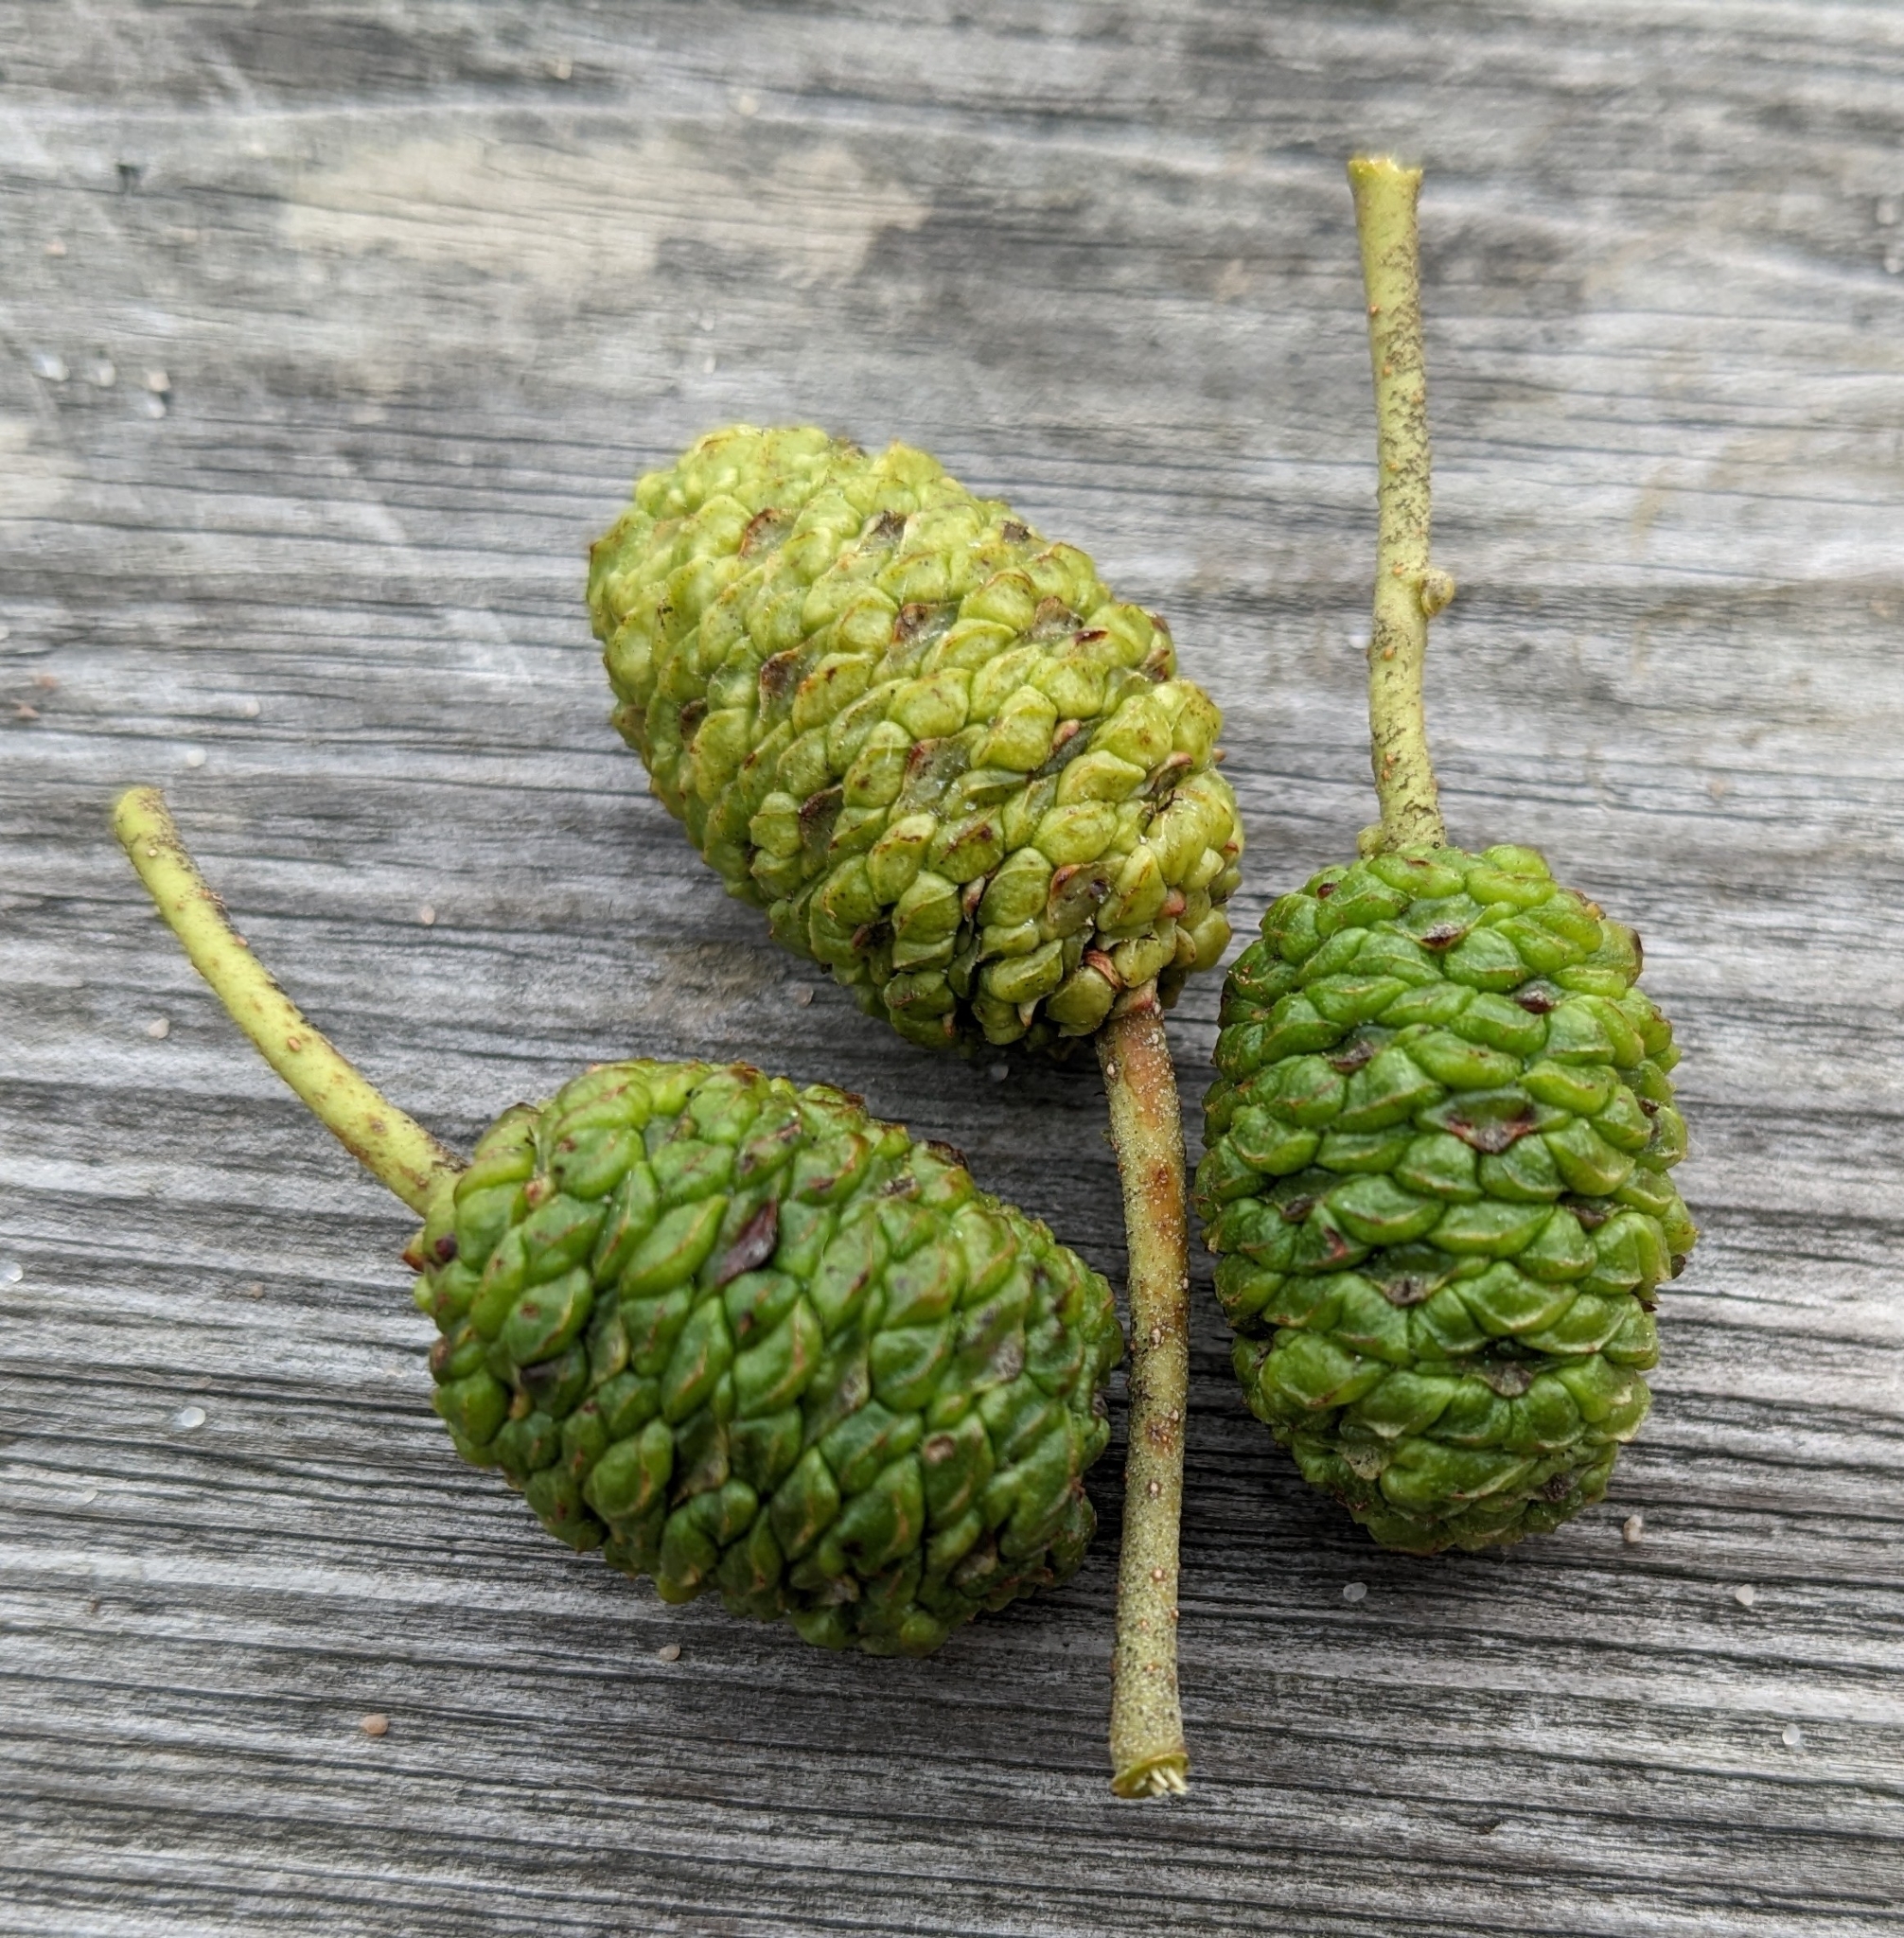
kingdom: Plantae
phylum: Tracheophyta
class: Magnoliopsida
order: Fagales
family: Betulaceae
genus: Alnus
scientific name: Alnus glutinosa
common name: Black alder
